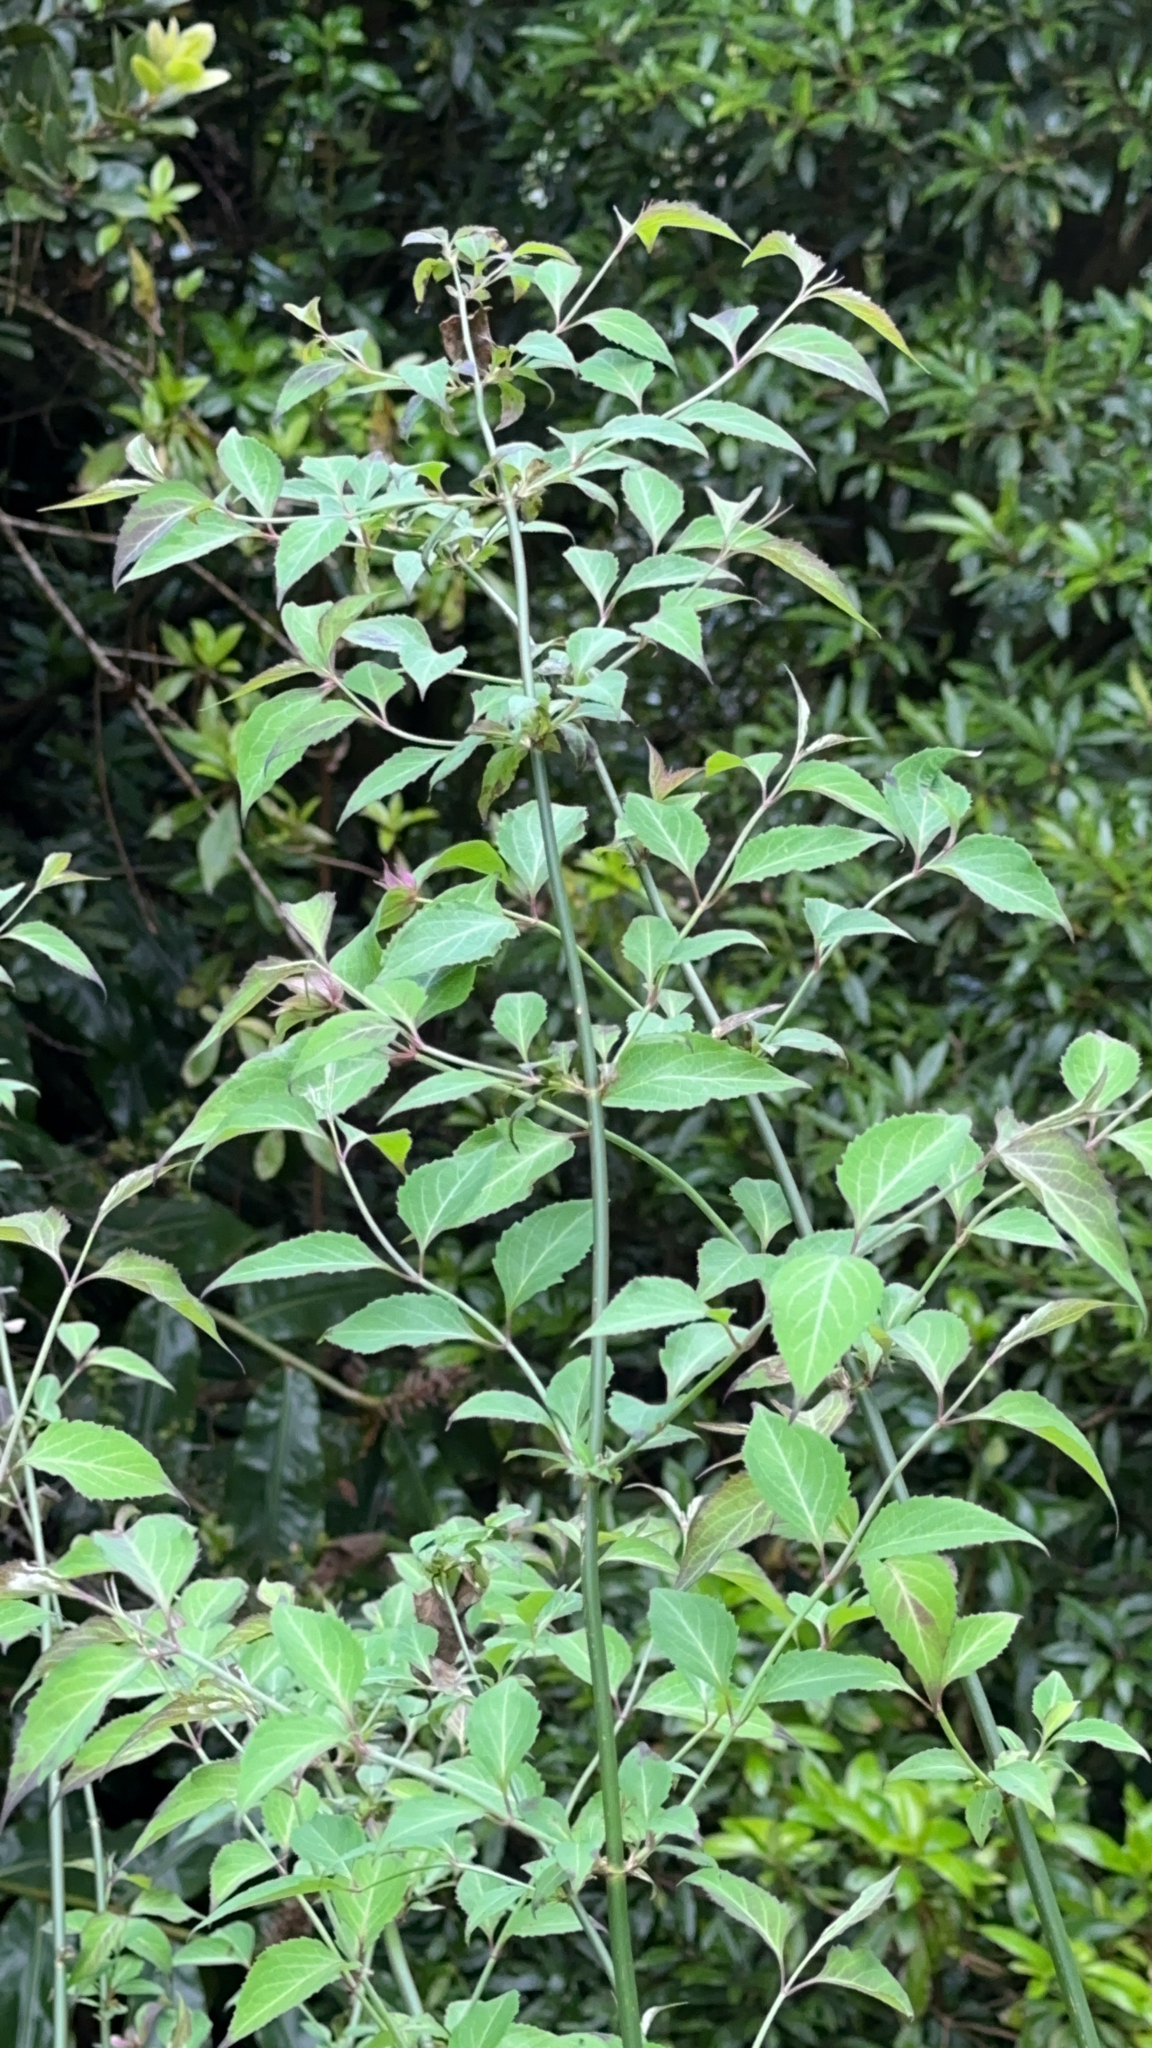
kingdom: Plantae
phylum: Tracheophyta
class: Magnoliopsida
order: Dipsacales
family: Caprifoliaceae
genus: Leycesteria
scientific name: Leycesteria formosa
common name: Himalayan honeysuckle
